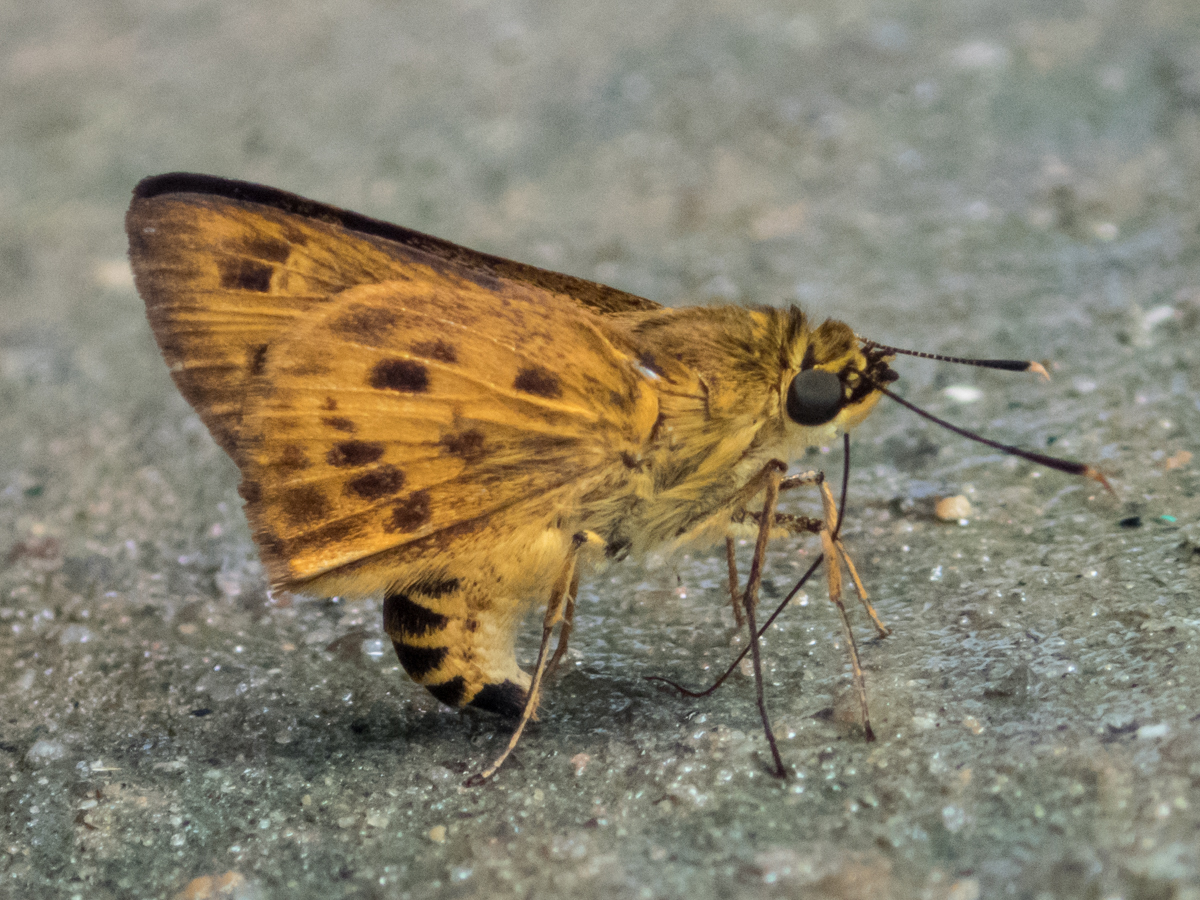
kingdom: Animalia
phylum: Arthropoda
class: Insecta
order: Lepidoptera
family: Hesperiidae
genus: Thoressa
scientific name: Thoressa masoni
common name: Golden ace
